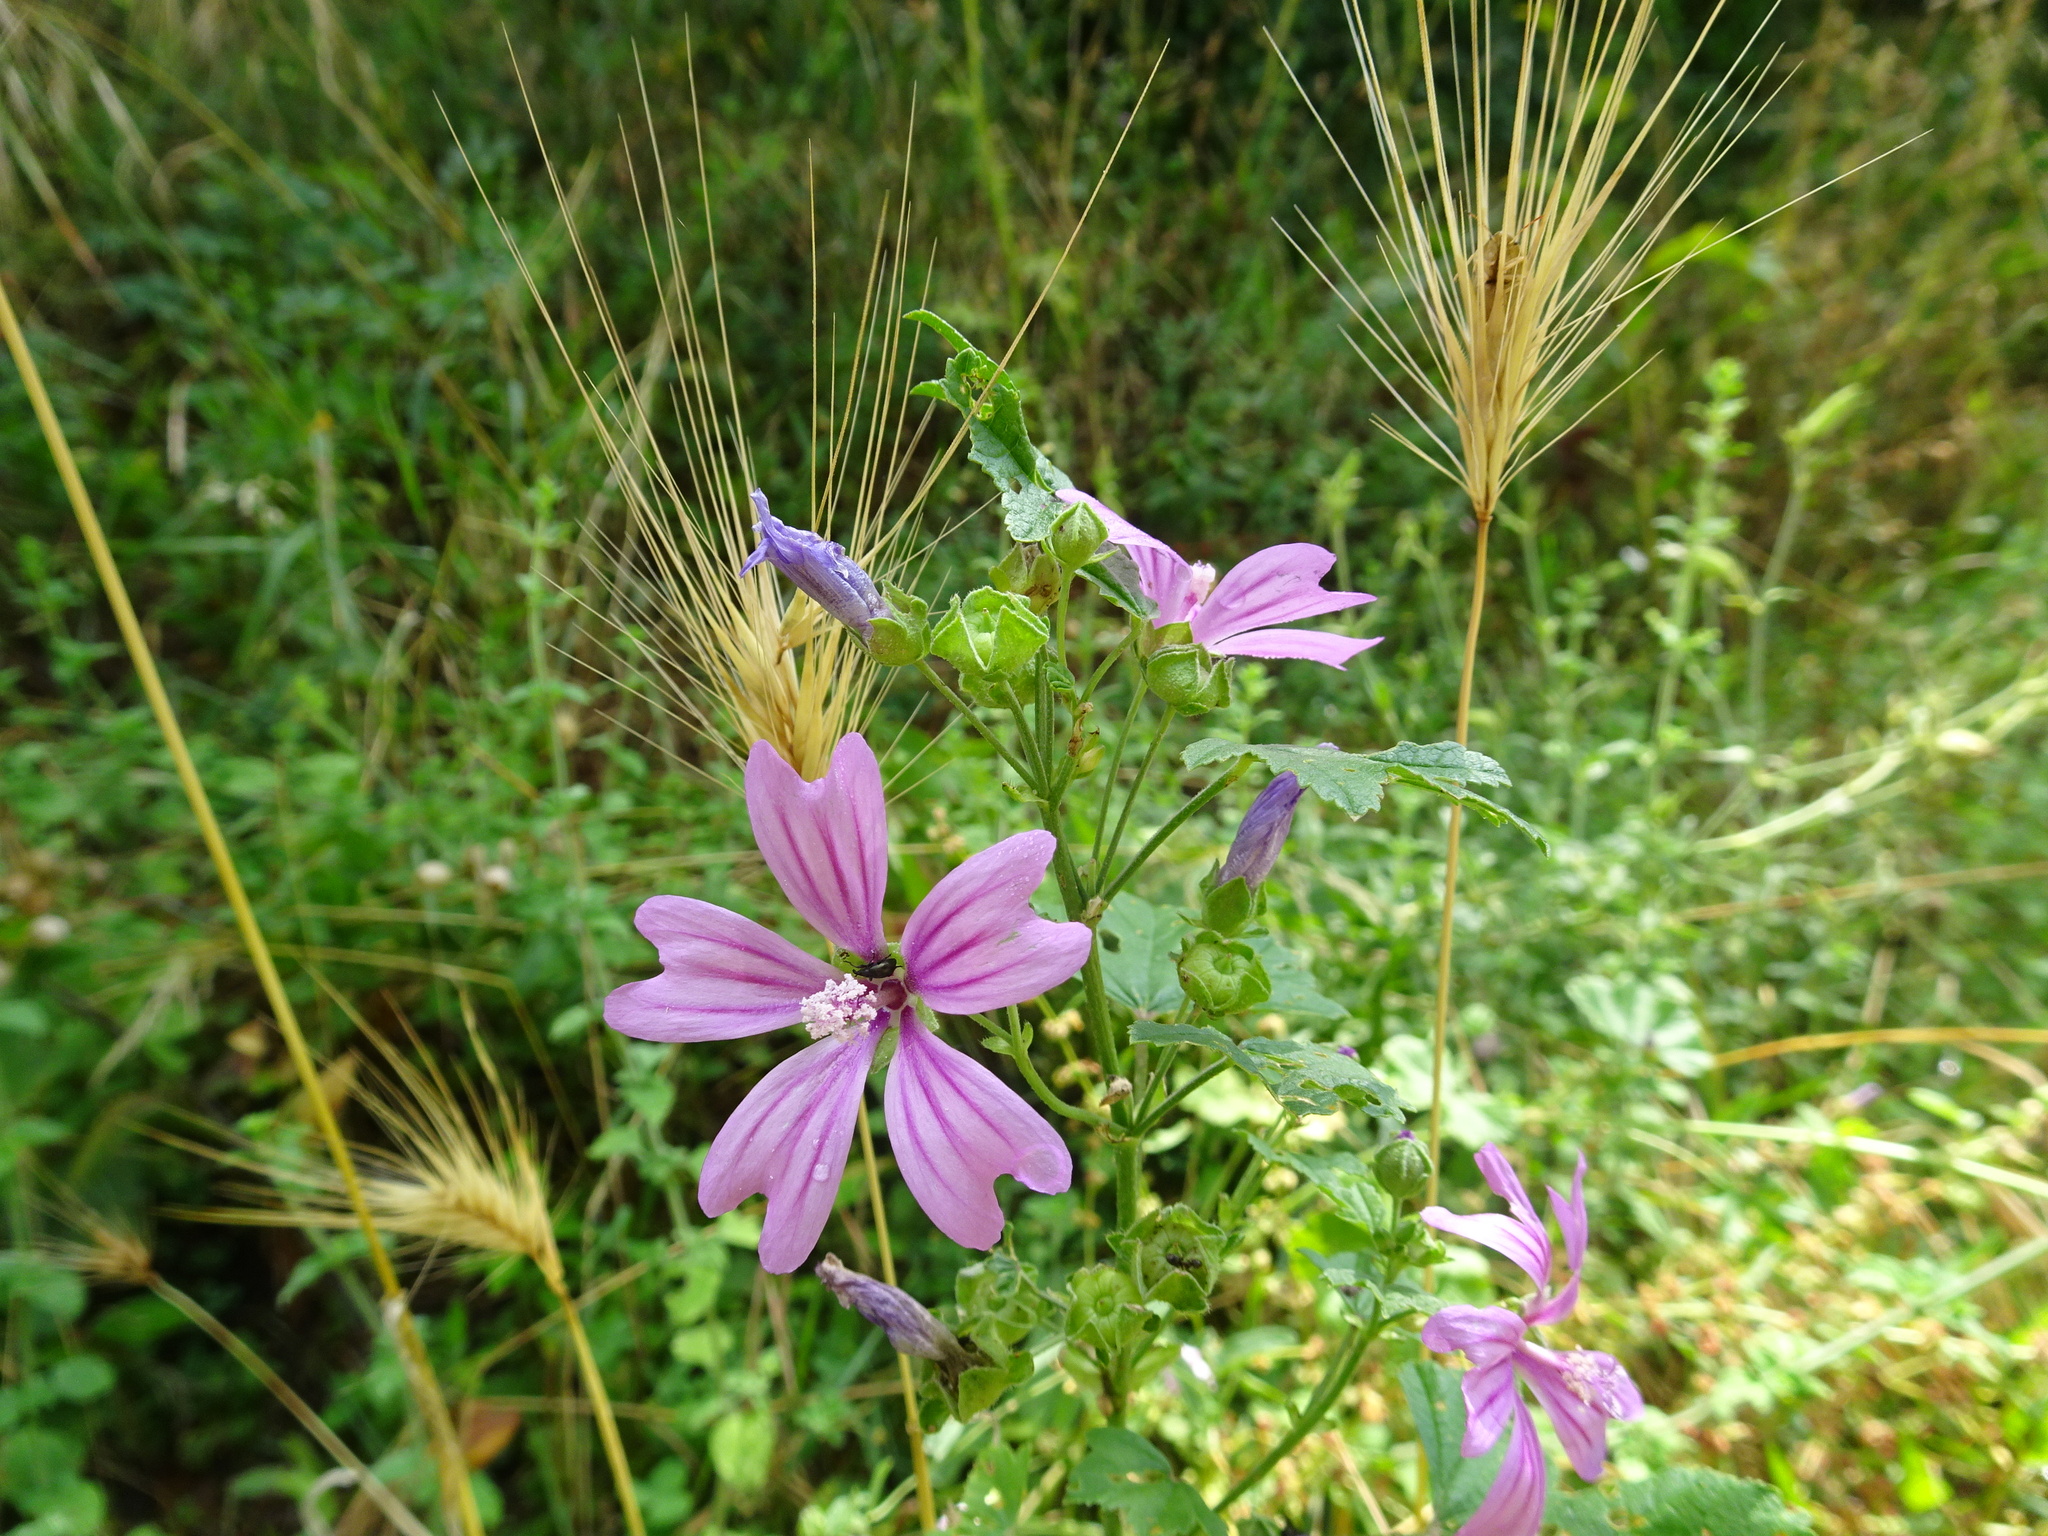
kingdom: Plantae
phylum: Tracheophyta
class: Magnoliopsida
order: Malvales
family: Malvaceae
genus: Malva
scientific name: Malva sylvestris
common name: Common mallow
